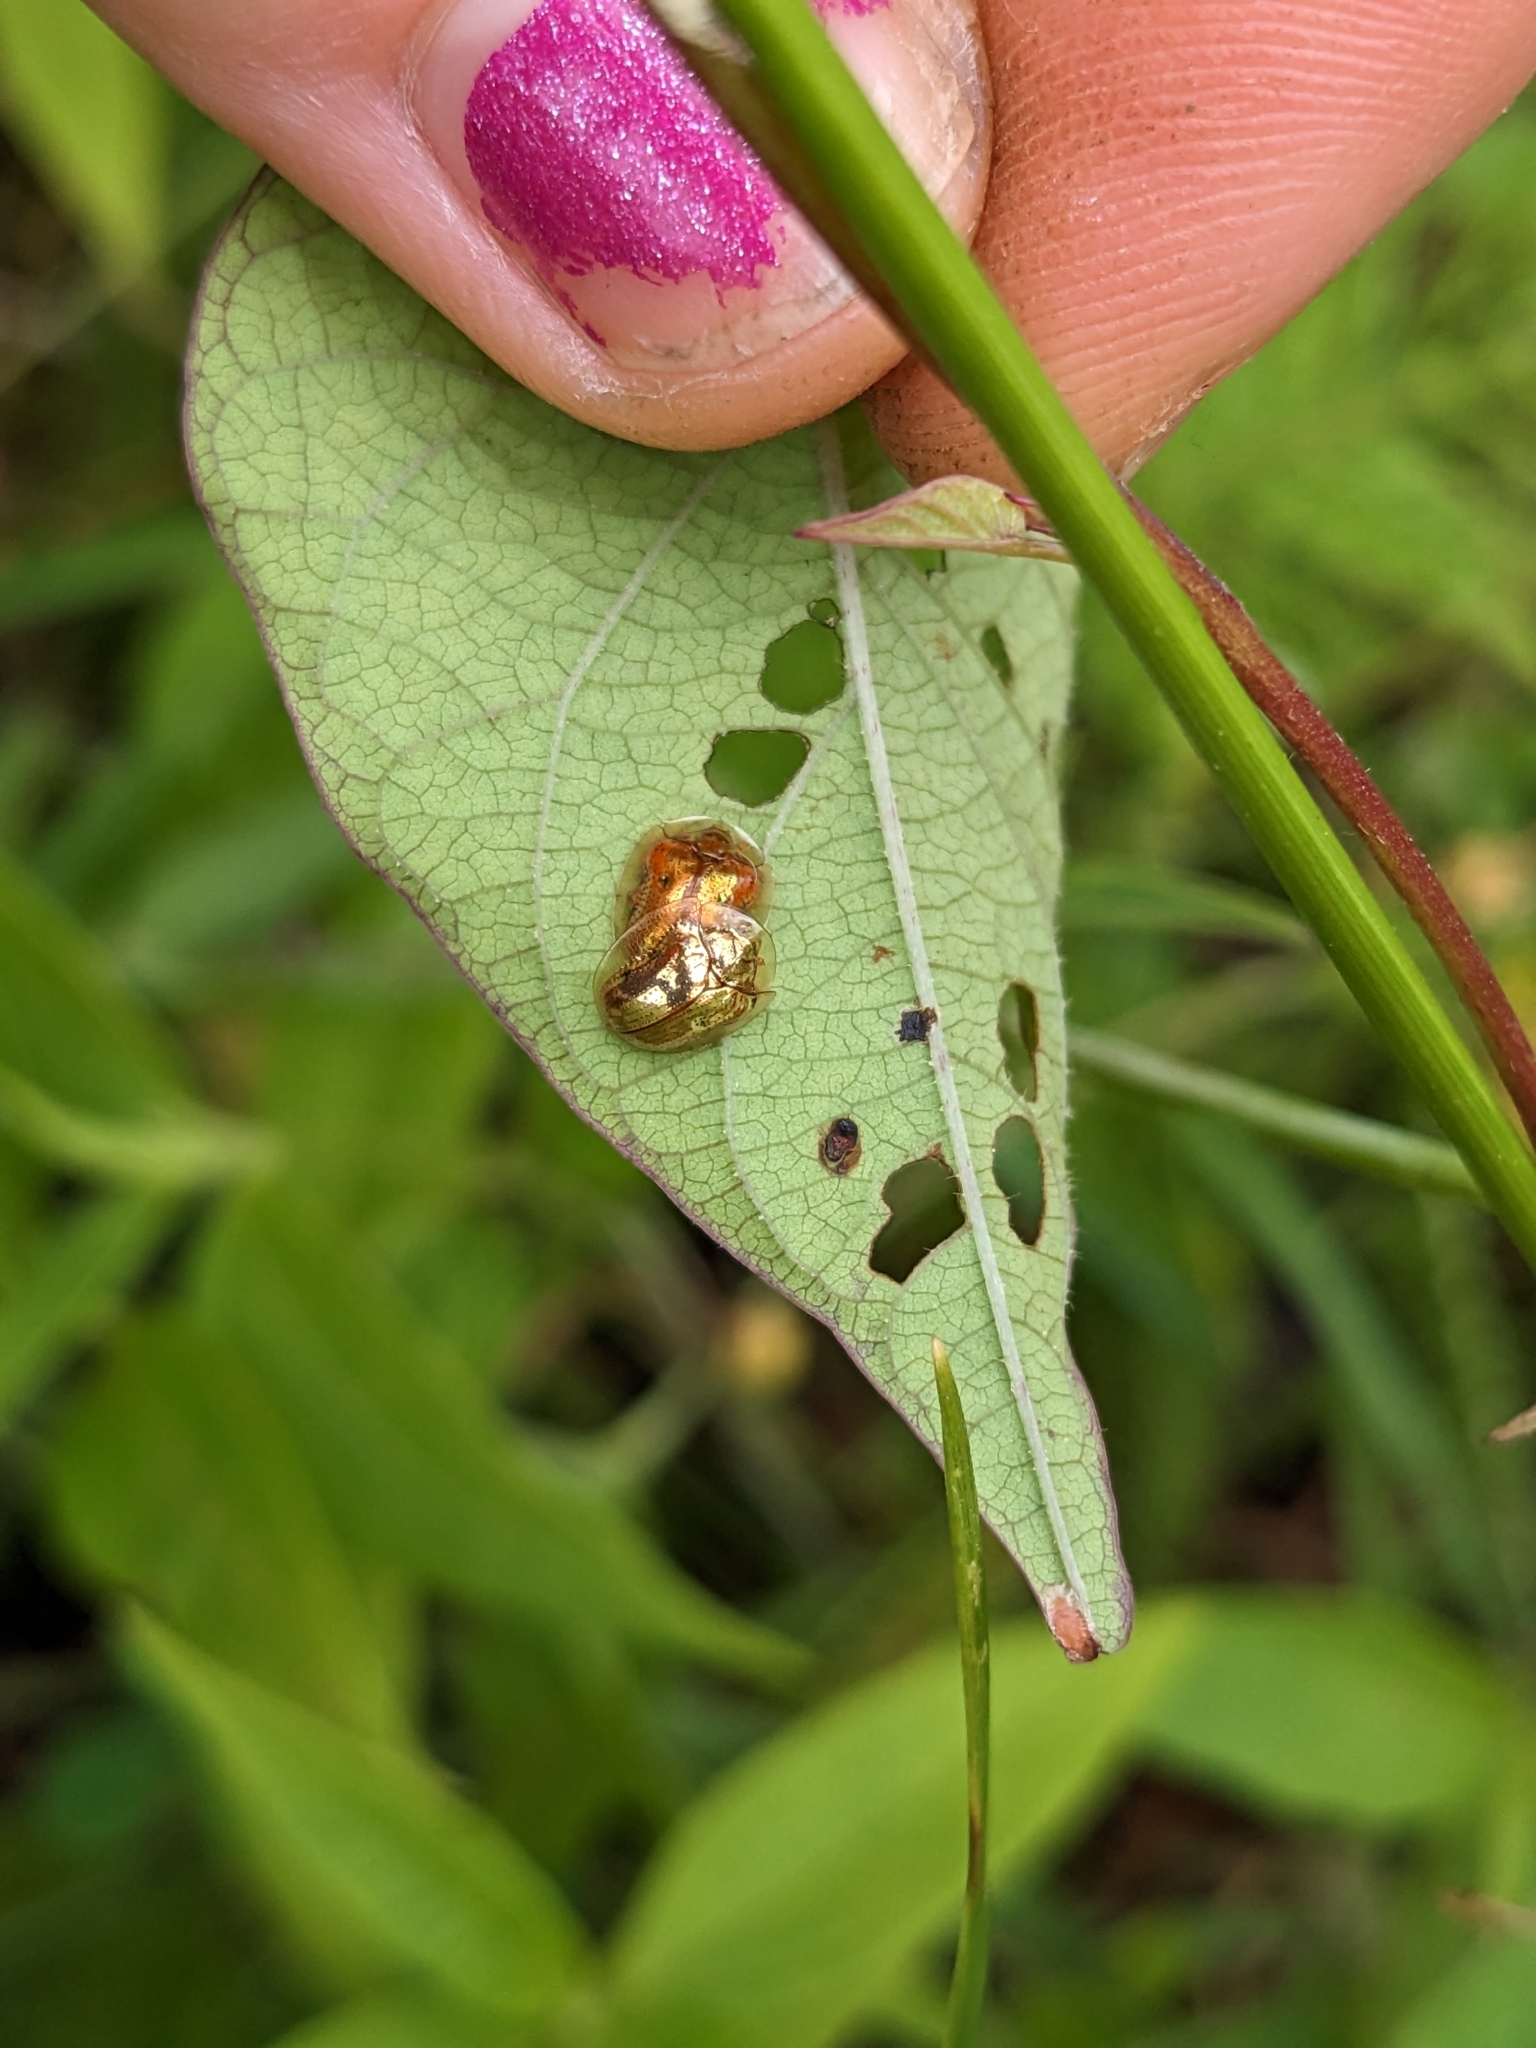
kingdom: Animalia
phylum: Arthropoda
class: Insecta
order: Coleoptera
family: Chrysomelidae
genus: Charidotella
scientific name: Charidotella sexpunctata
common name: Golden tortoise beetle
